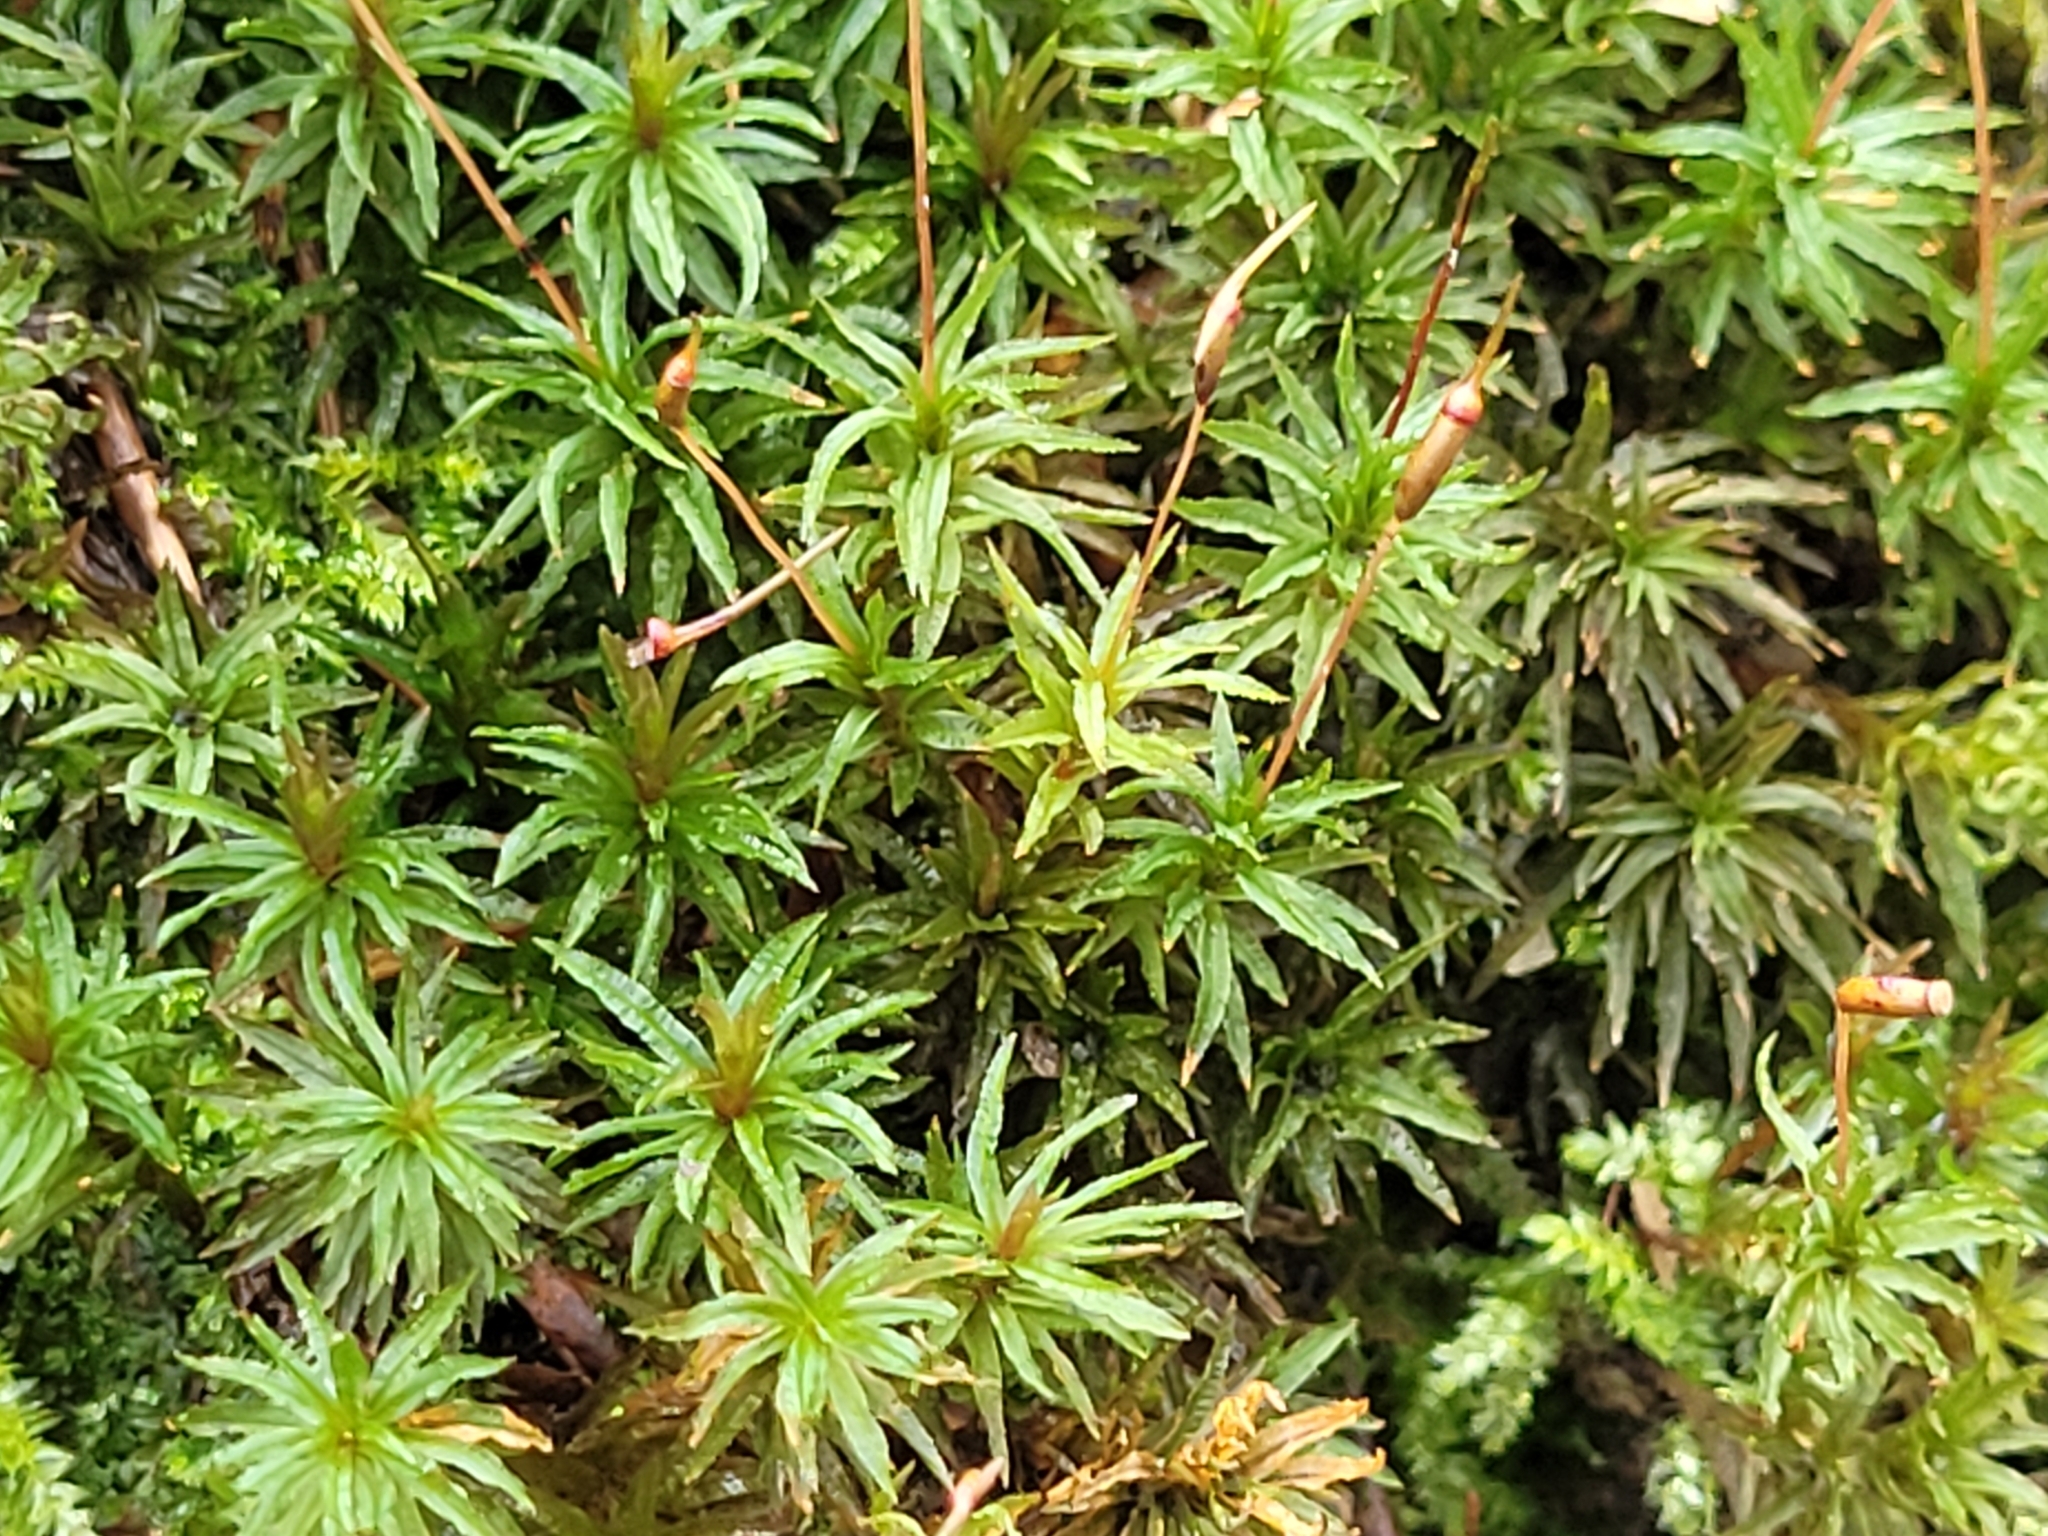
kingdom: Plantae
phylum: Bryophyta
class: Polytrichopsida
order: Polytrichales
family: Polytrichaceae
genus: Atrichum
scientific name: Atrichum undulatum
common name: Common smoothcap
